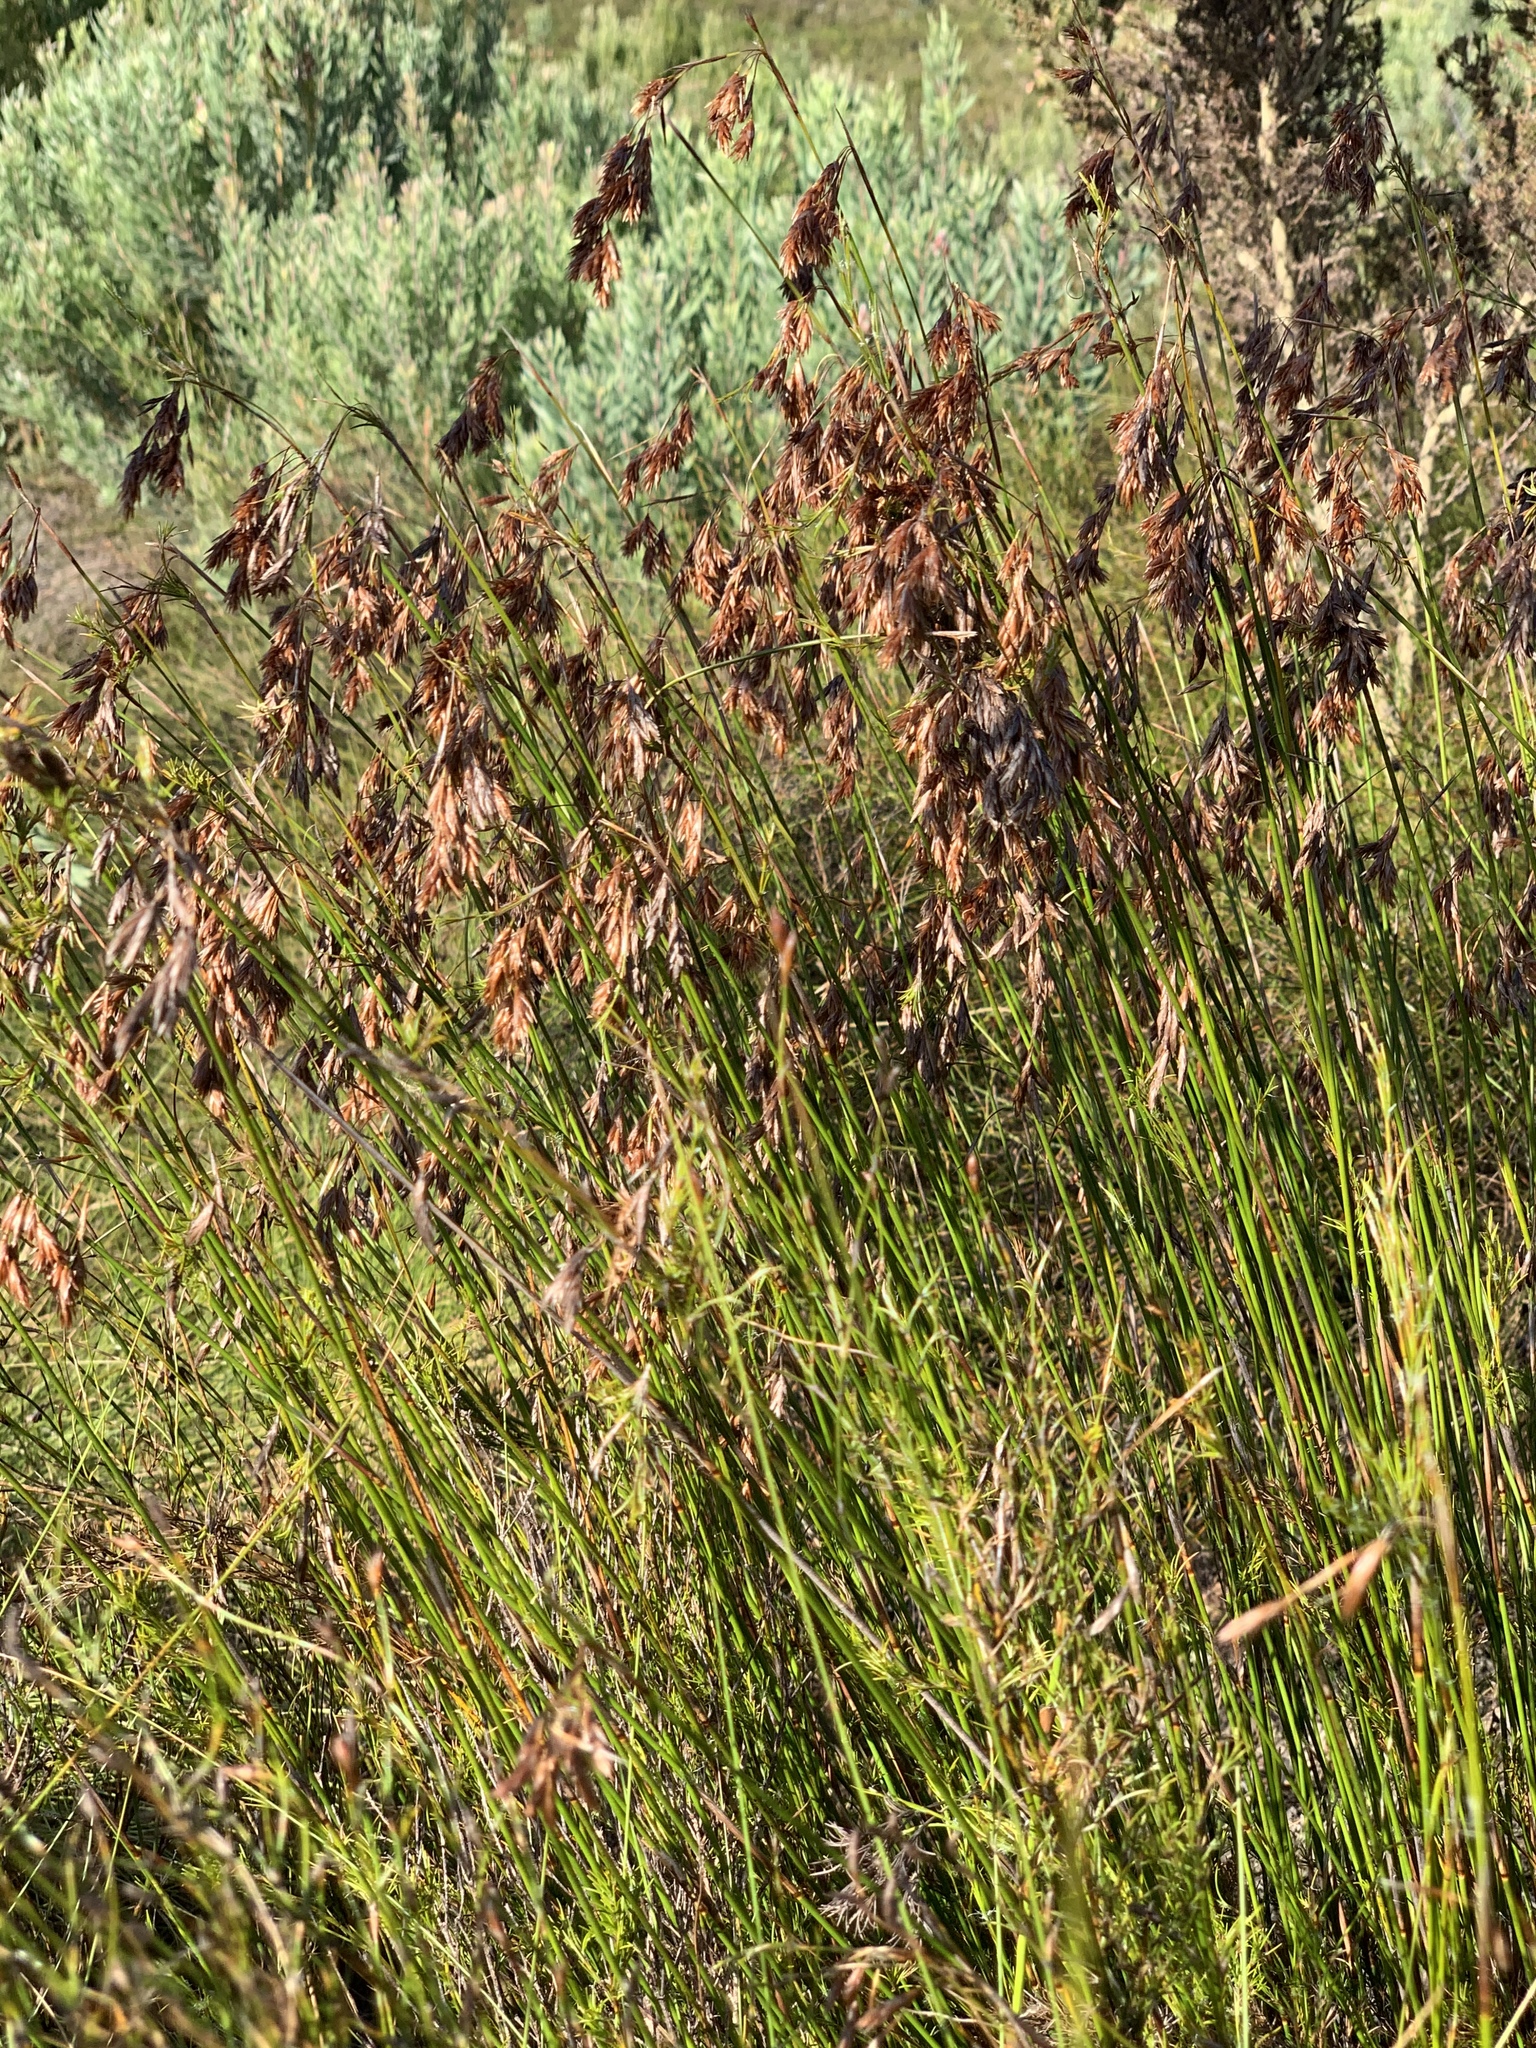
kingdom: Plantae
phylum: Tracheophyta
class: Liliopsida
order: Poales
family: Restionaceae
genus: Thamnochortus
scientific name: Thamnochortus lucens
